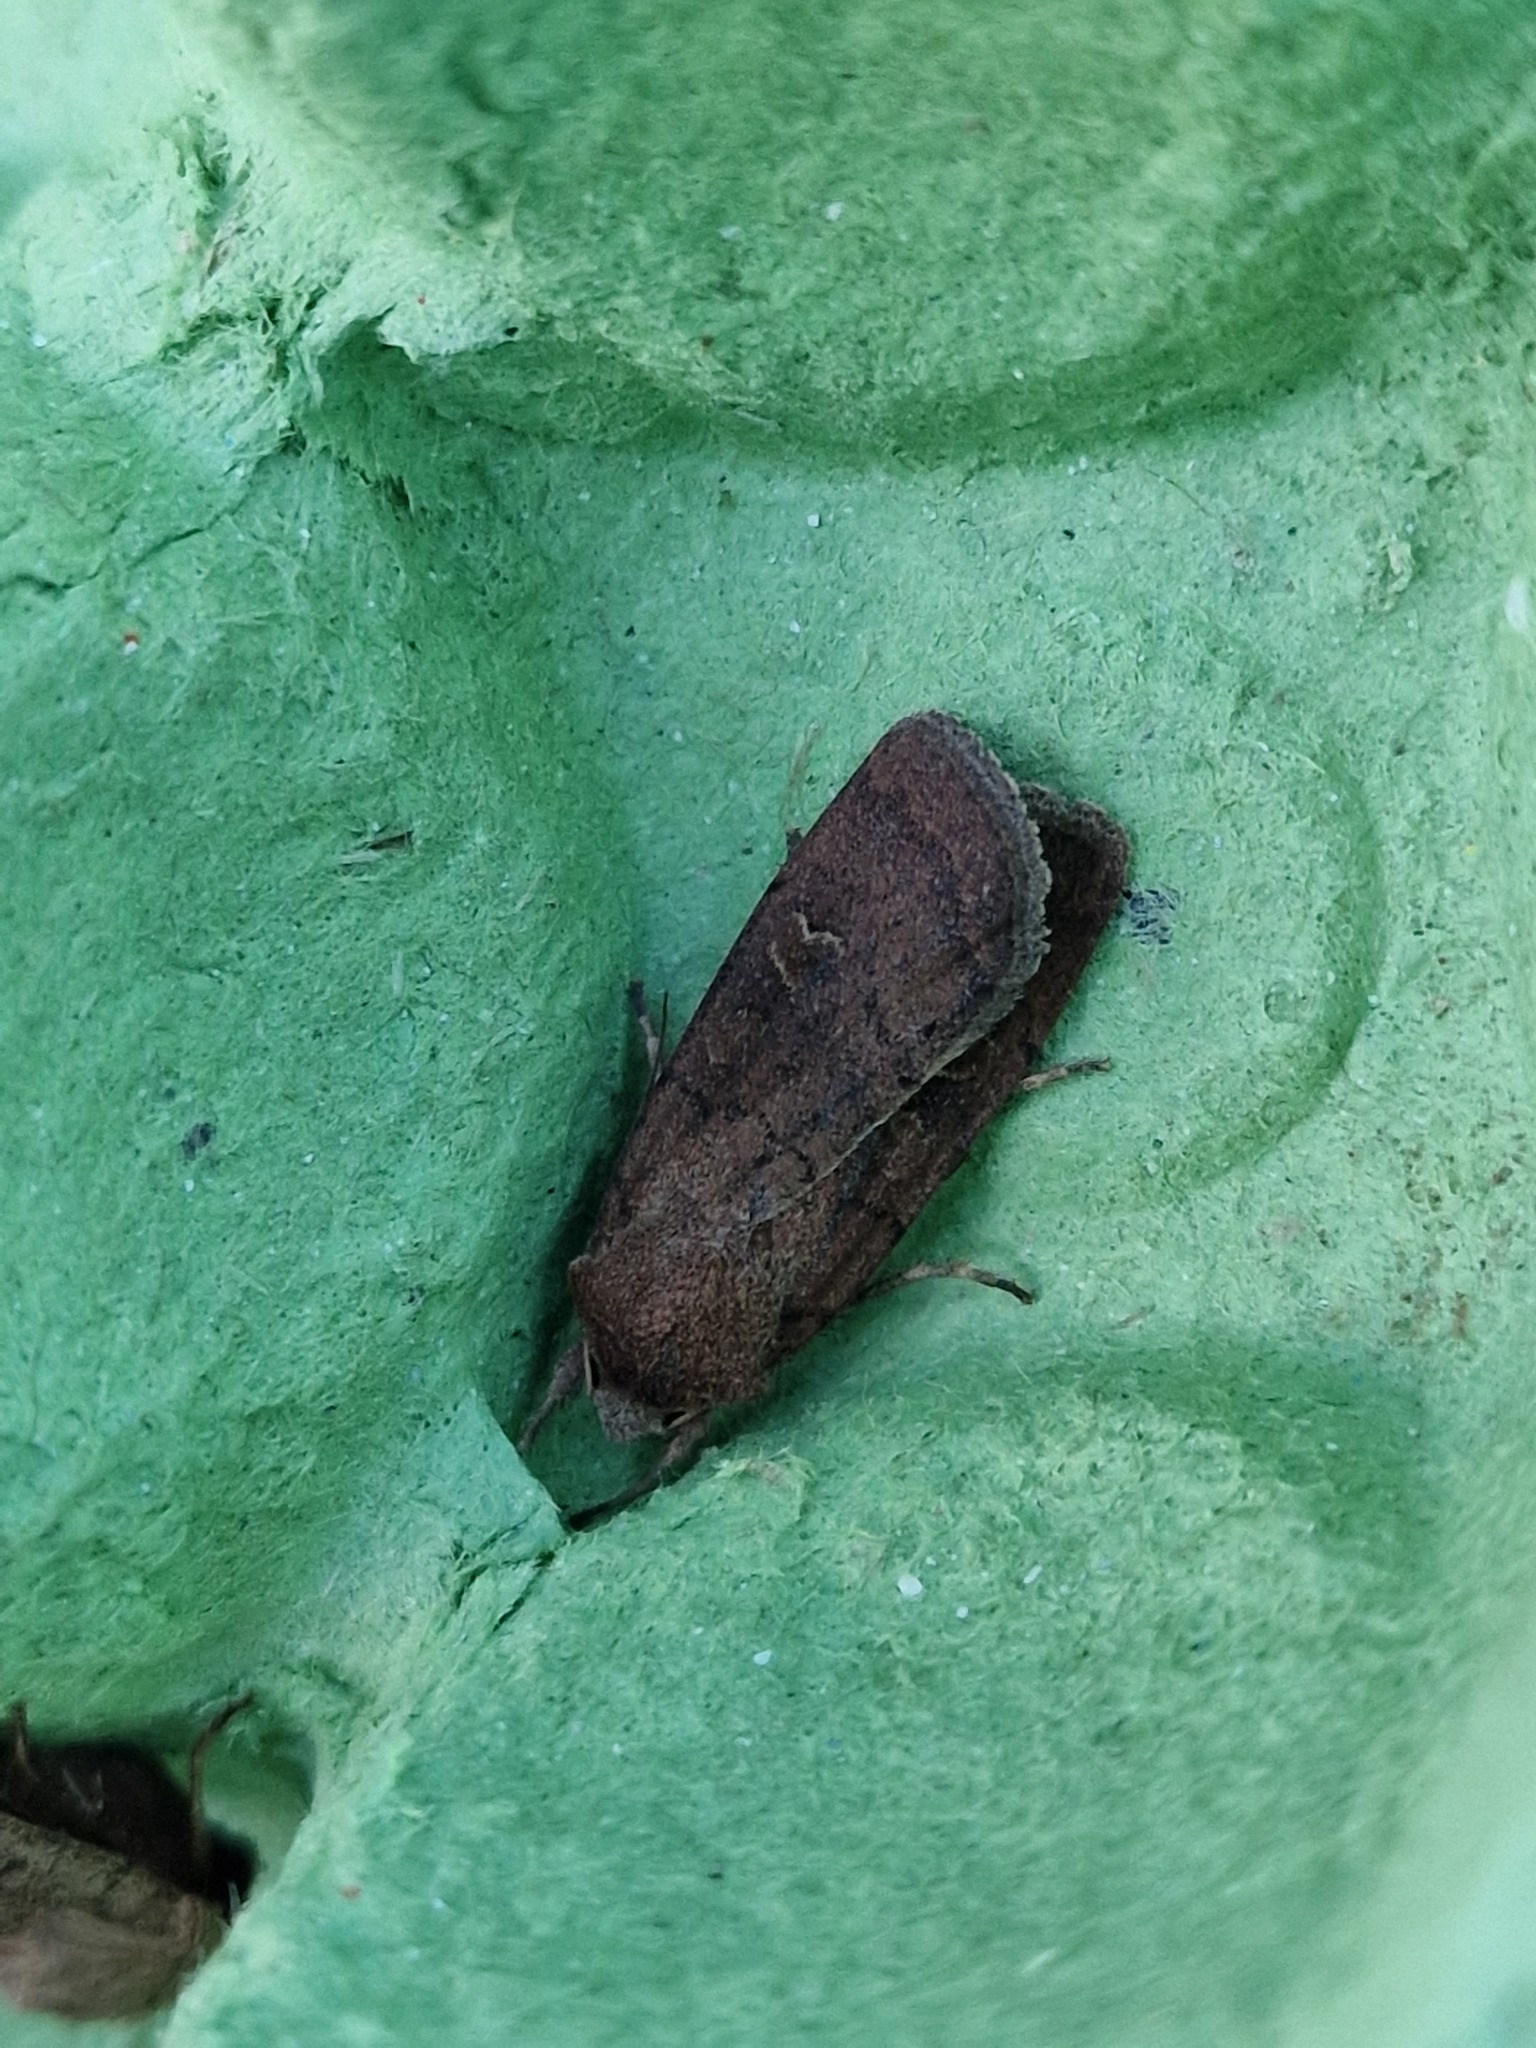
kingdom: Animalia
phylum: Arthropoda
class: Insecta
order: Lepidoptera
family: Noctuidae
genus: Xestia
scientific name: Xestia xanthographa
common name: Square-spot rustic
